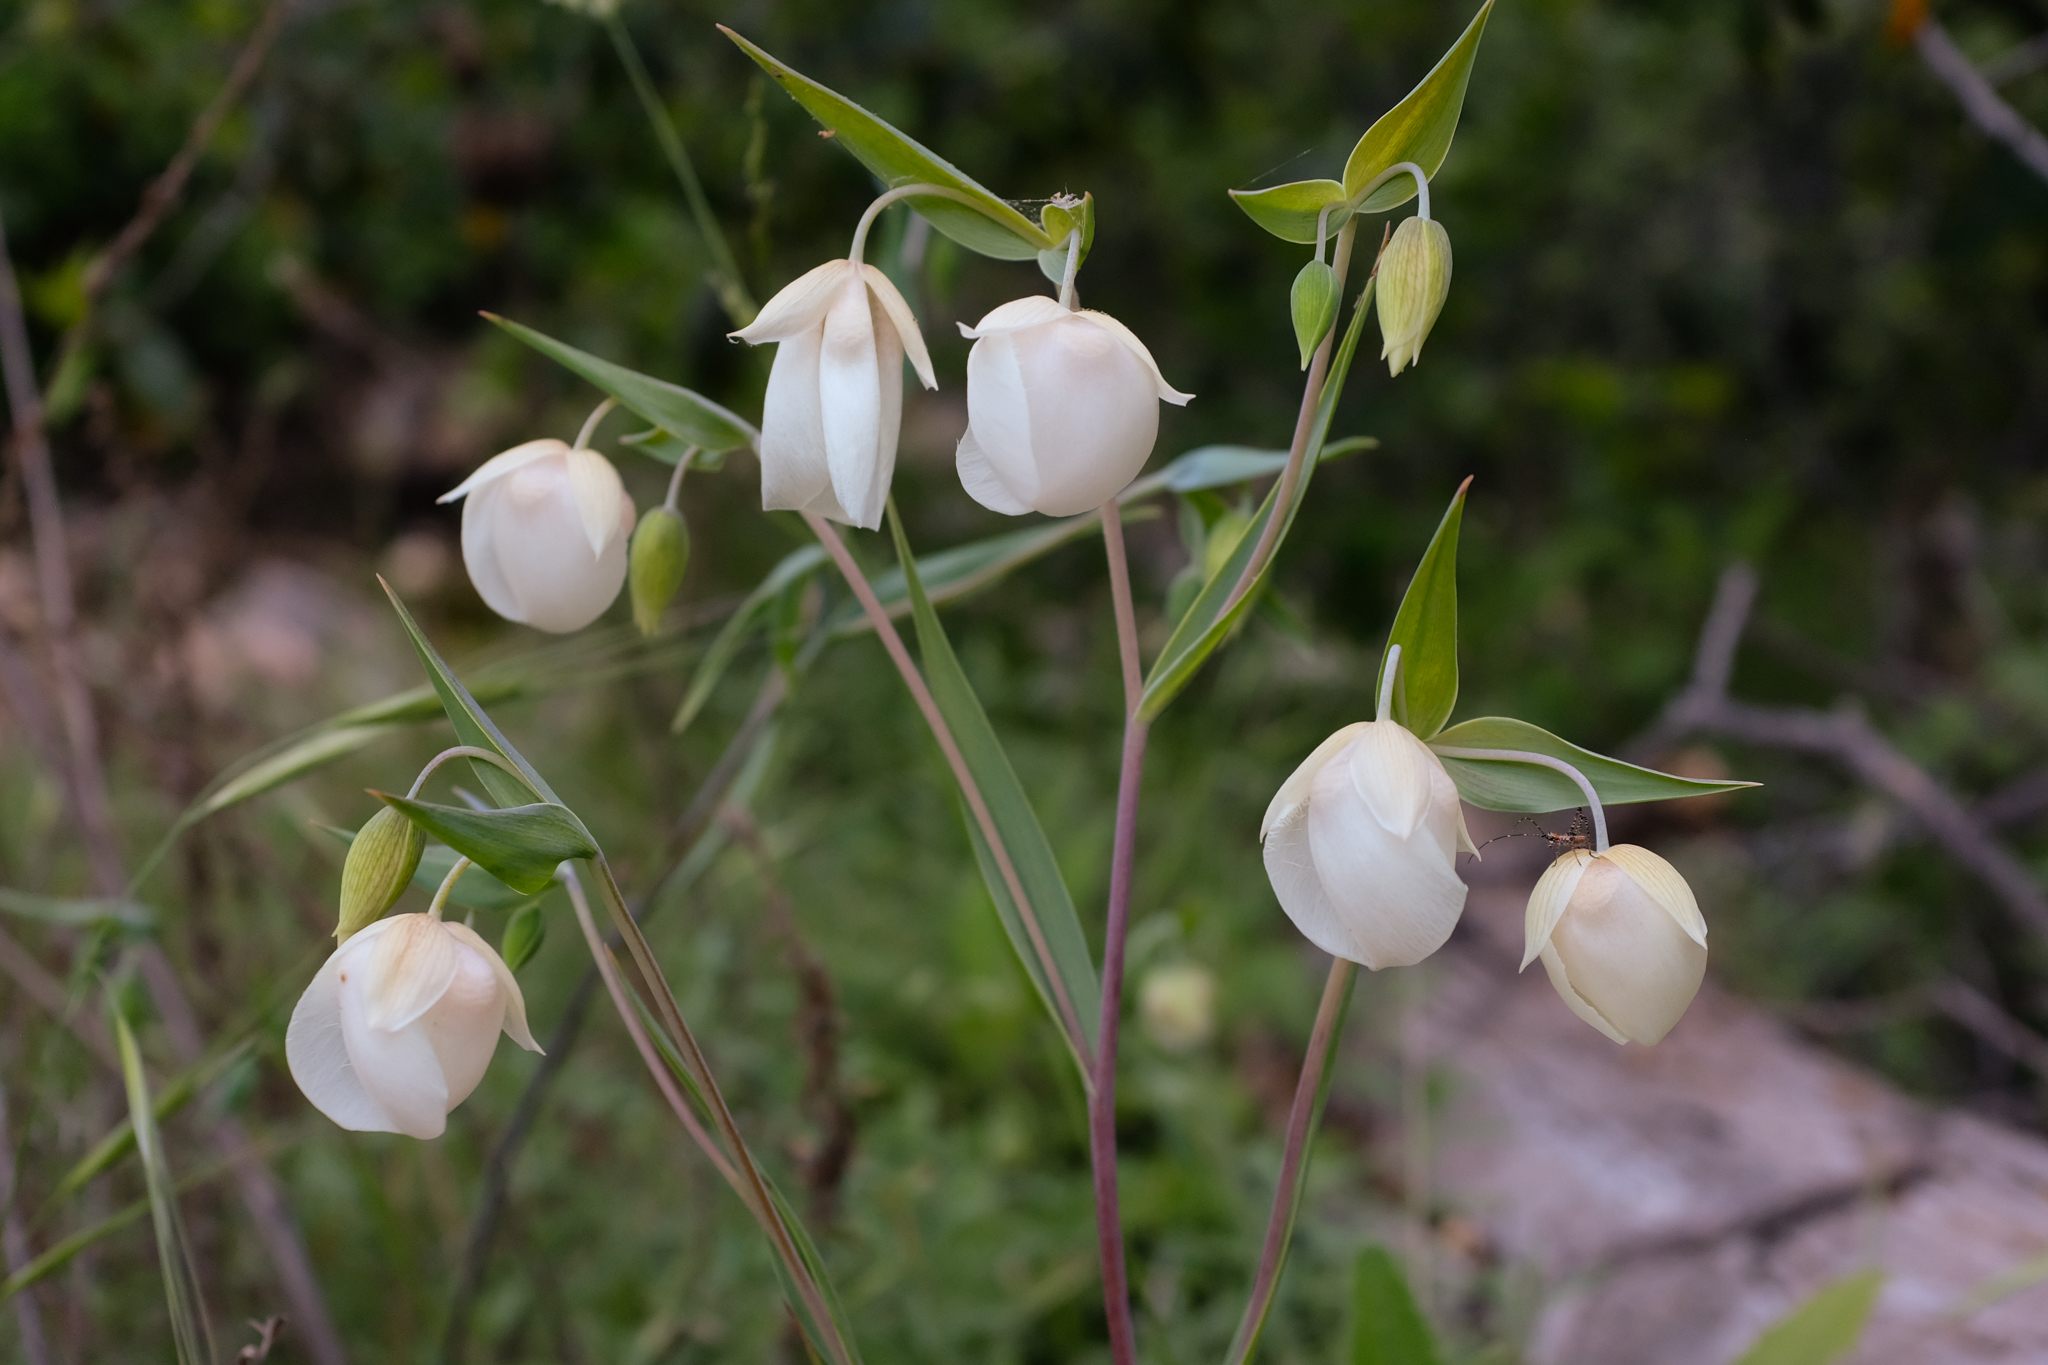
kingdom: Plantae
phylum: Tracheophyta
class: Liliopsida
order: Liliales
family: Liliaceae
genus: Calochortus
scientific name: Calochortus albus
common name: Fairy-lantern
